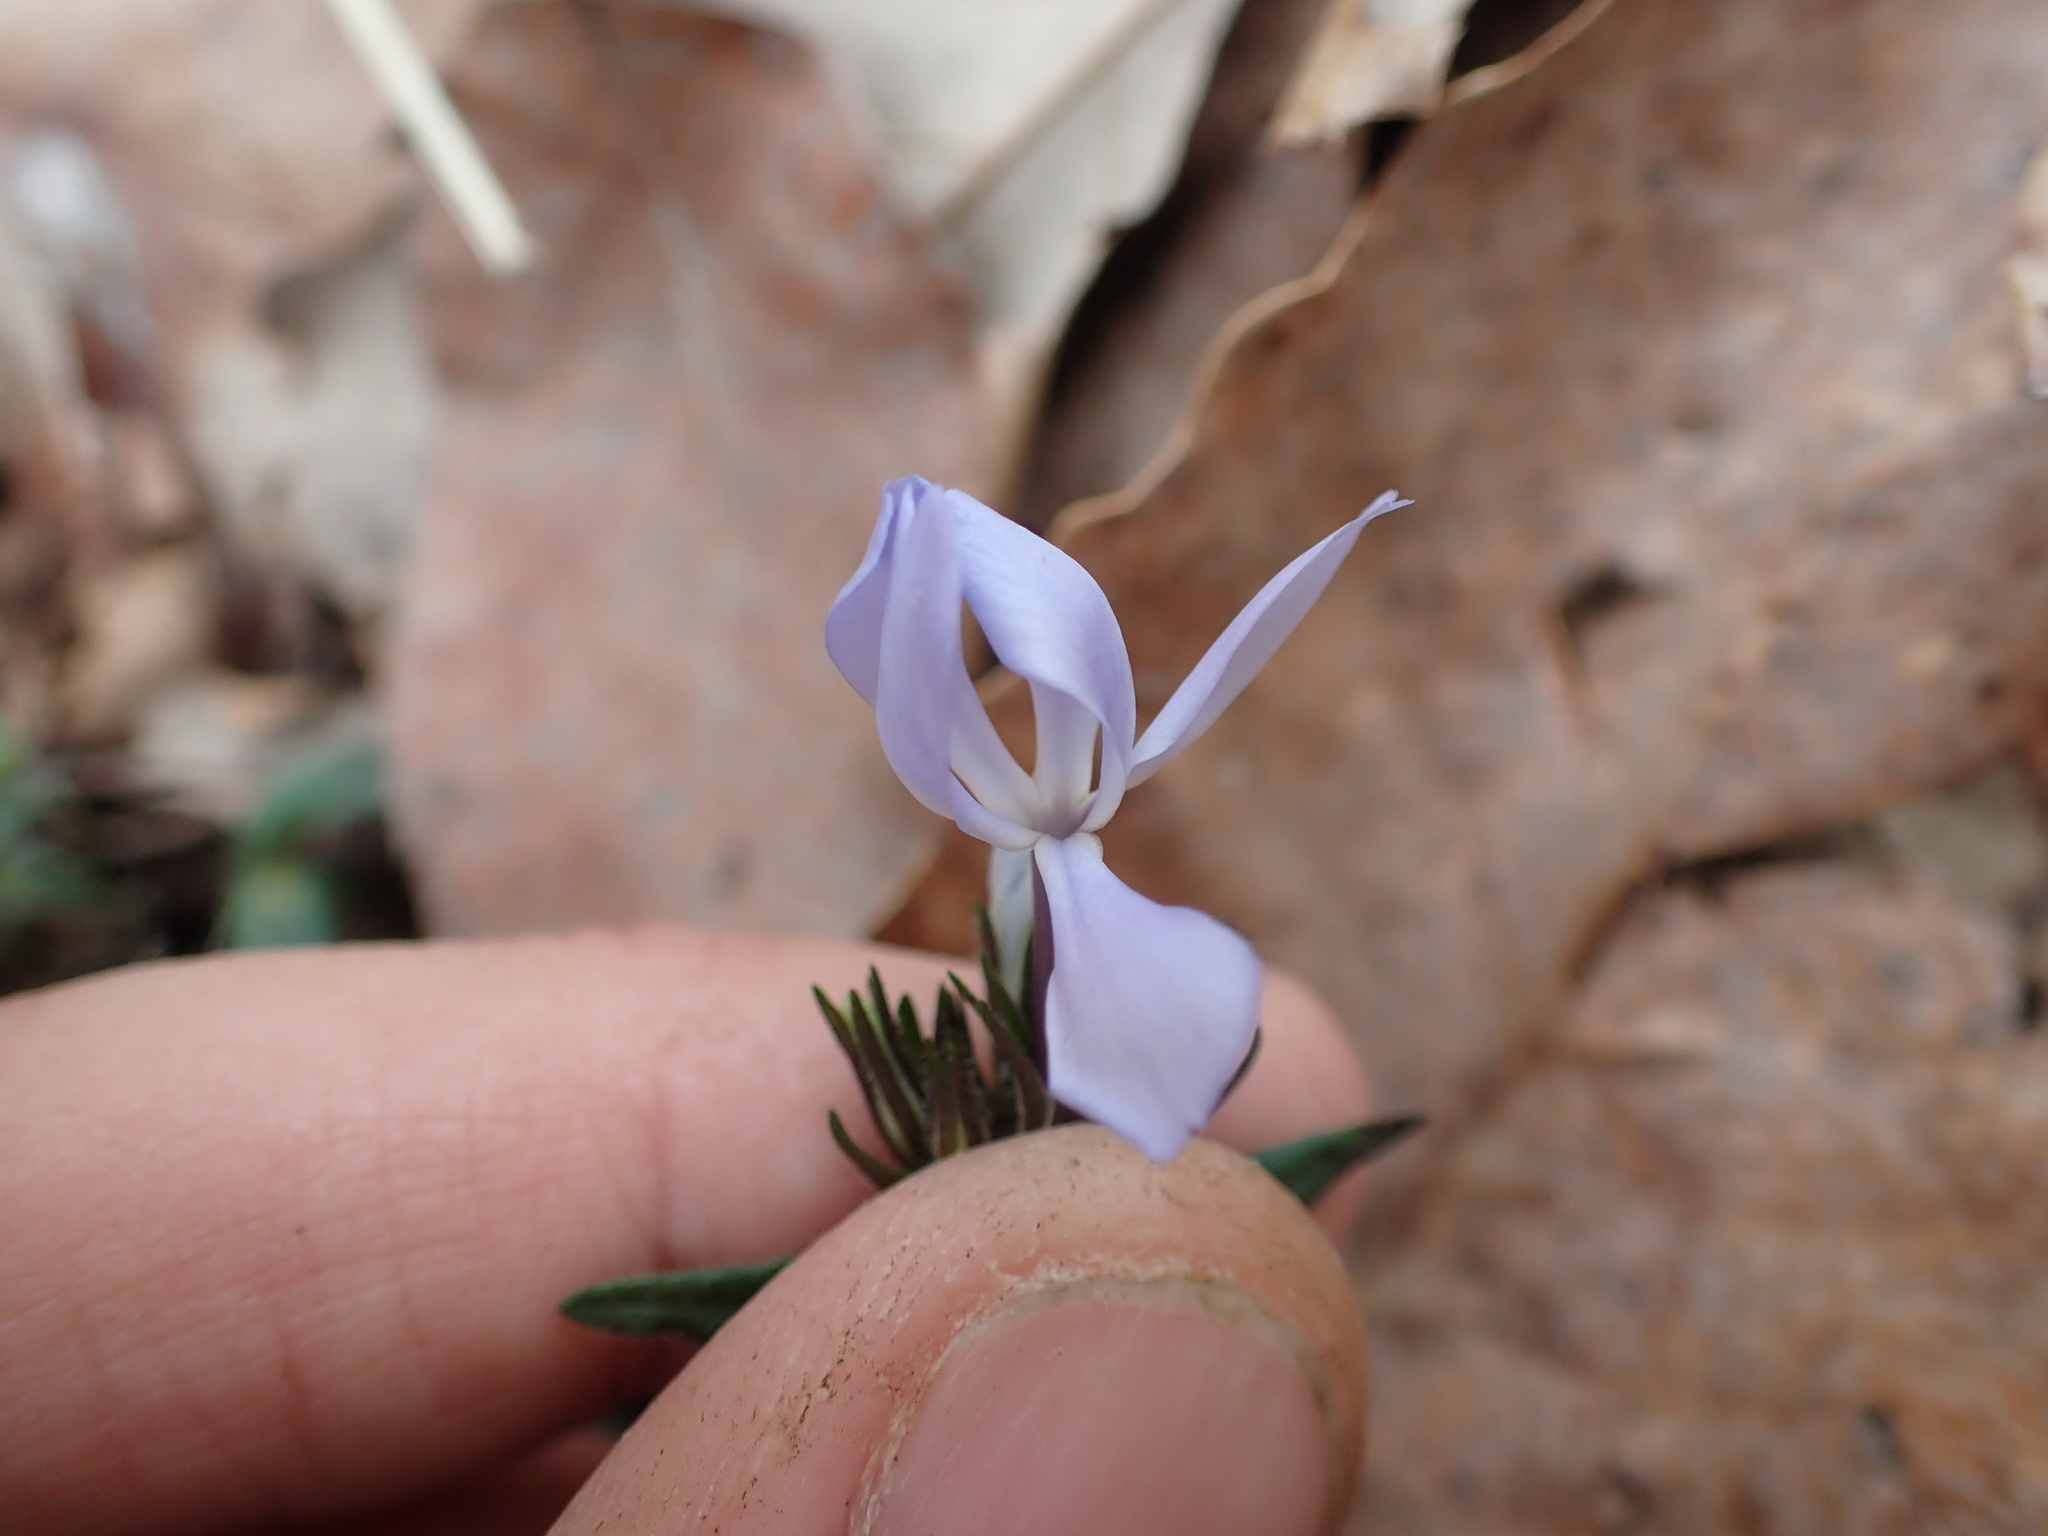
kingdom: Plantae
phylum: Tracheophyta
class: Magnoliopsida
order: Ericales
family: Polemoniaceae
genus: Phlox
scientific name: Phlox divaricata
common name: Blue phlox
